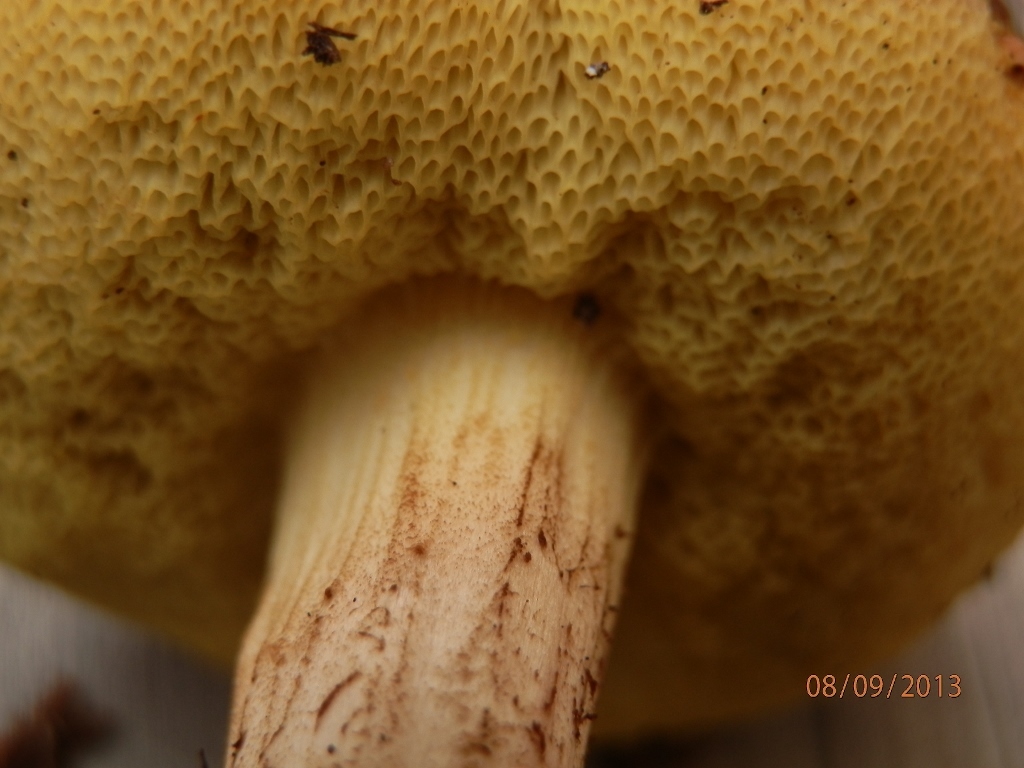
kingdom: Fungi
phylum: Basidiomycota
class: Agaricomycetes
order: Boletales
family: Boletaceae
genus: Xerocomus
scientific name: Xerocomus subtomentosus
